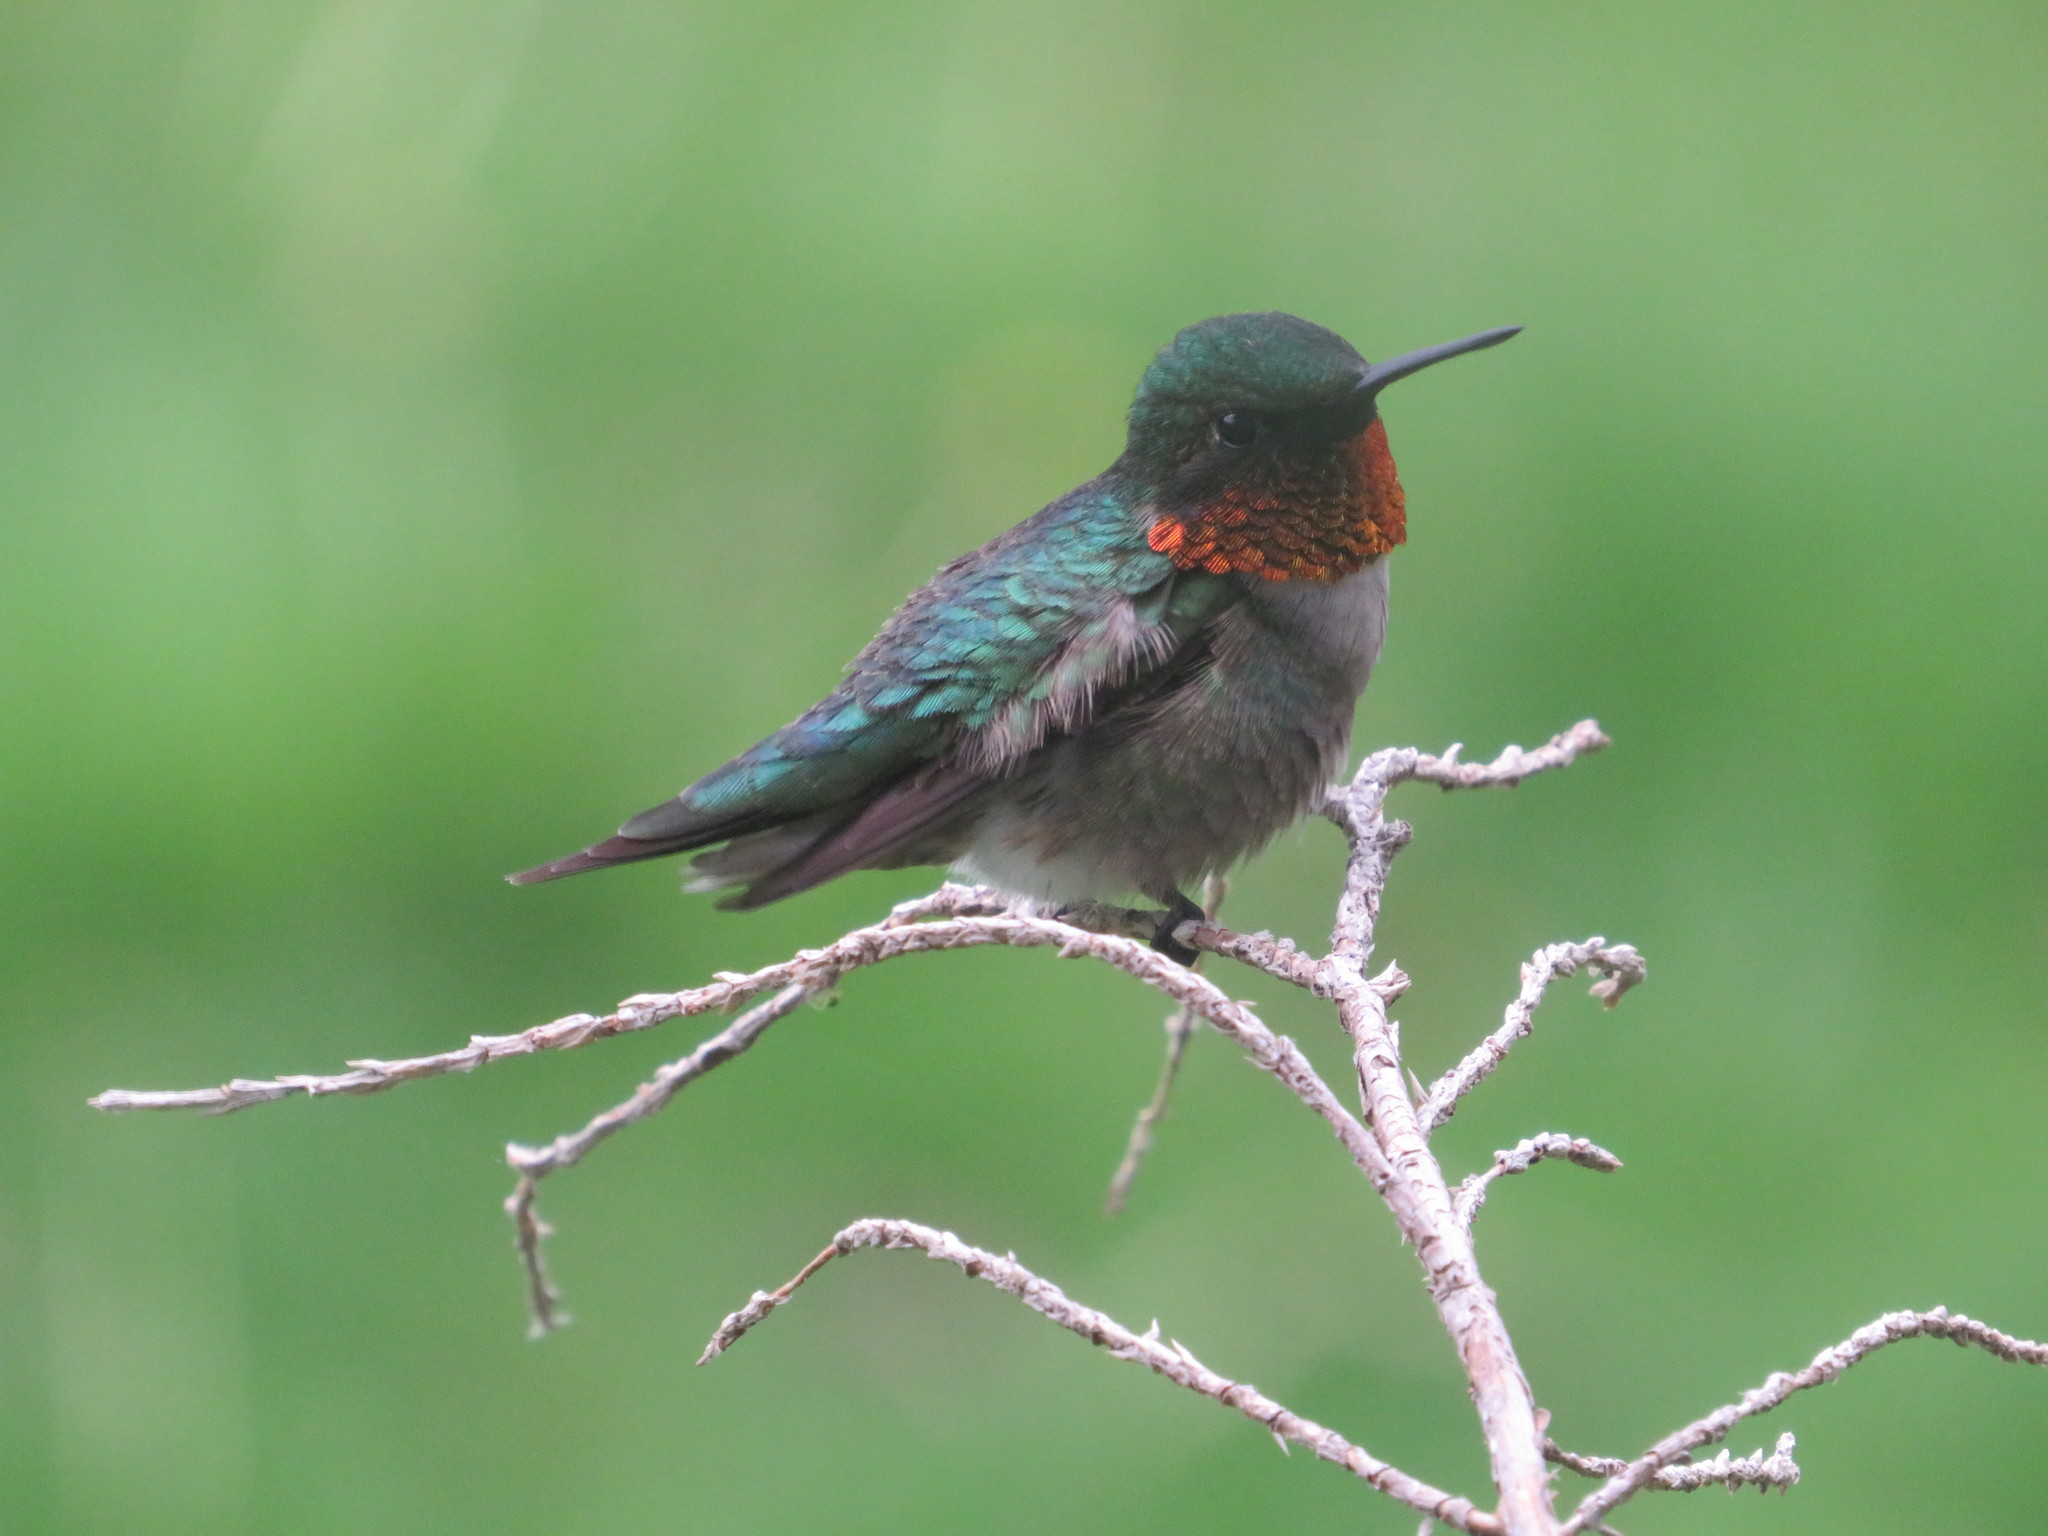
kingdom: Animalia
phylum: Chordata
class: Aves
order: Apodiformes
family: Trochilidae
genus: Archilochus
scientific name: Archilochus colubris
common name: Ruby-throated hummingbird
